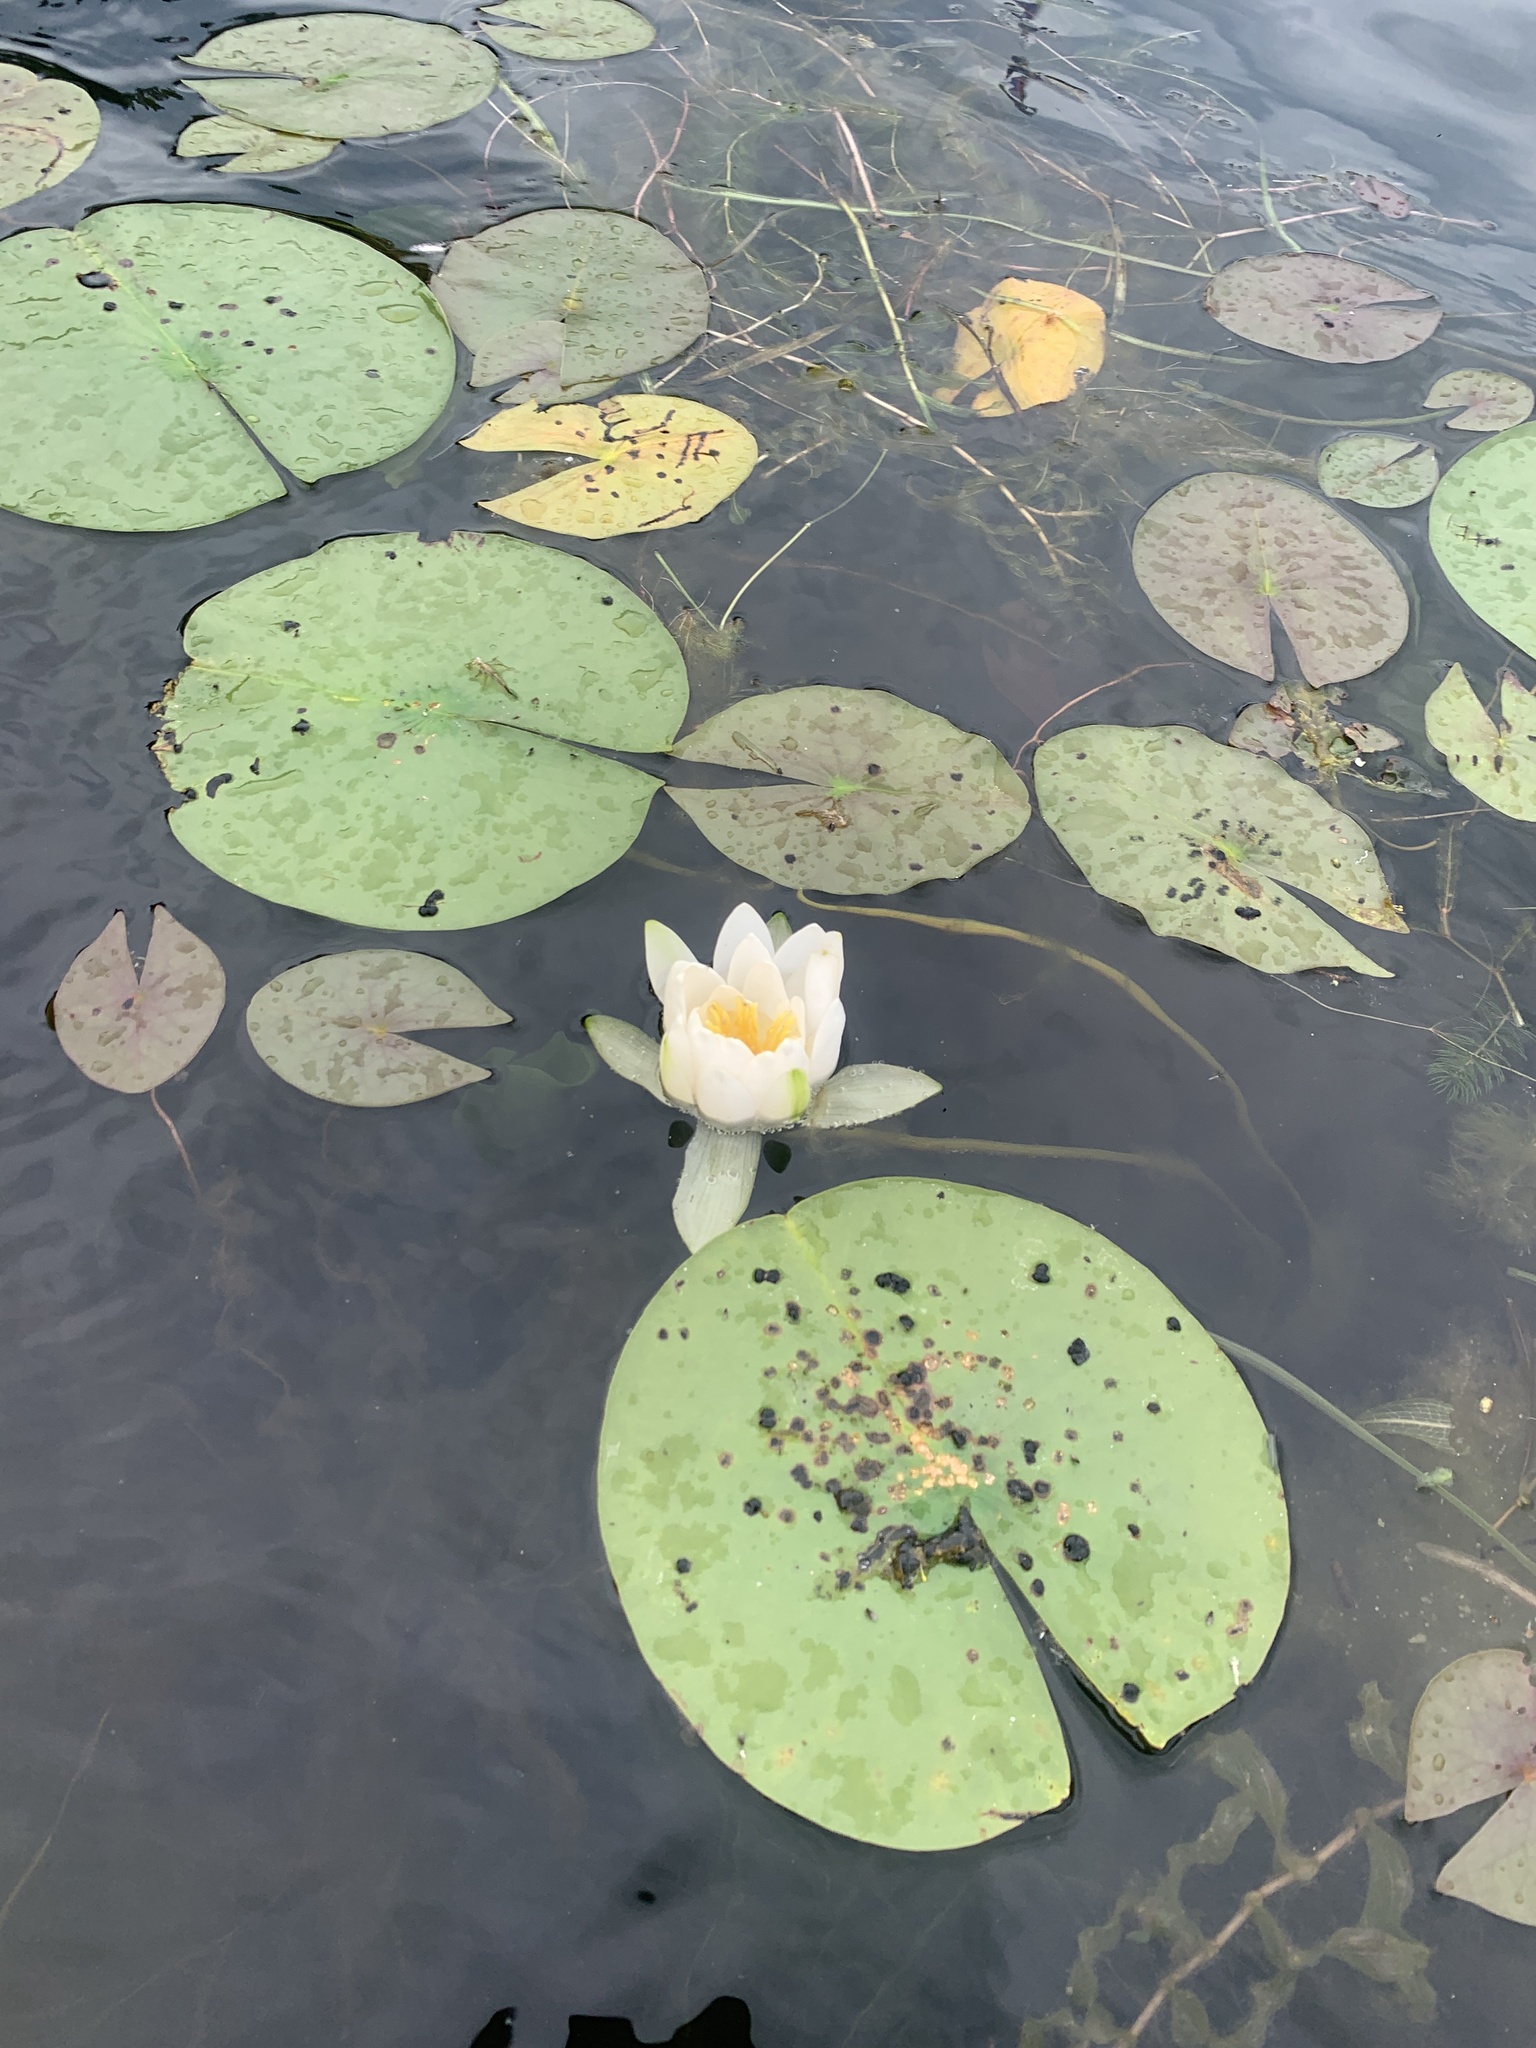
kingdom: Plantae
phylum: Tracheophyta
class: Magnoliopsida
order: Nymphaeales
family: Nymphaeaceae
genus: Nymphaea
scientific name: Nymphaea odorata
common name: Fragrant water-lily
